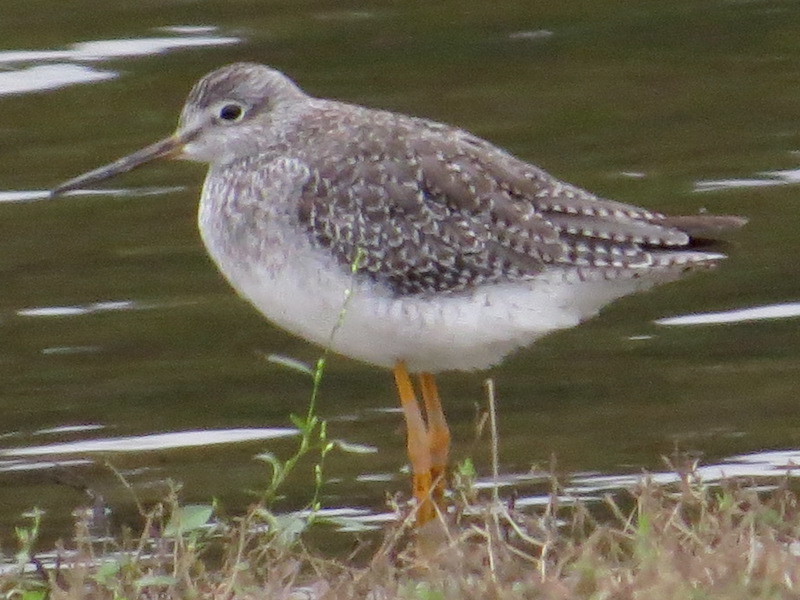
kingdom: Animalia
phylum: Chordata
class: Aves
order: Charadriiformes
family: Scolopacidae
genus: Tringa
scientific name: Tringa melanoleuca
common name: Greater yellowlegs
